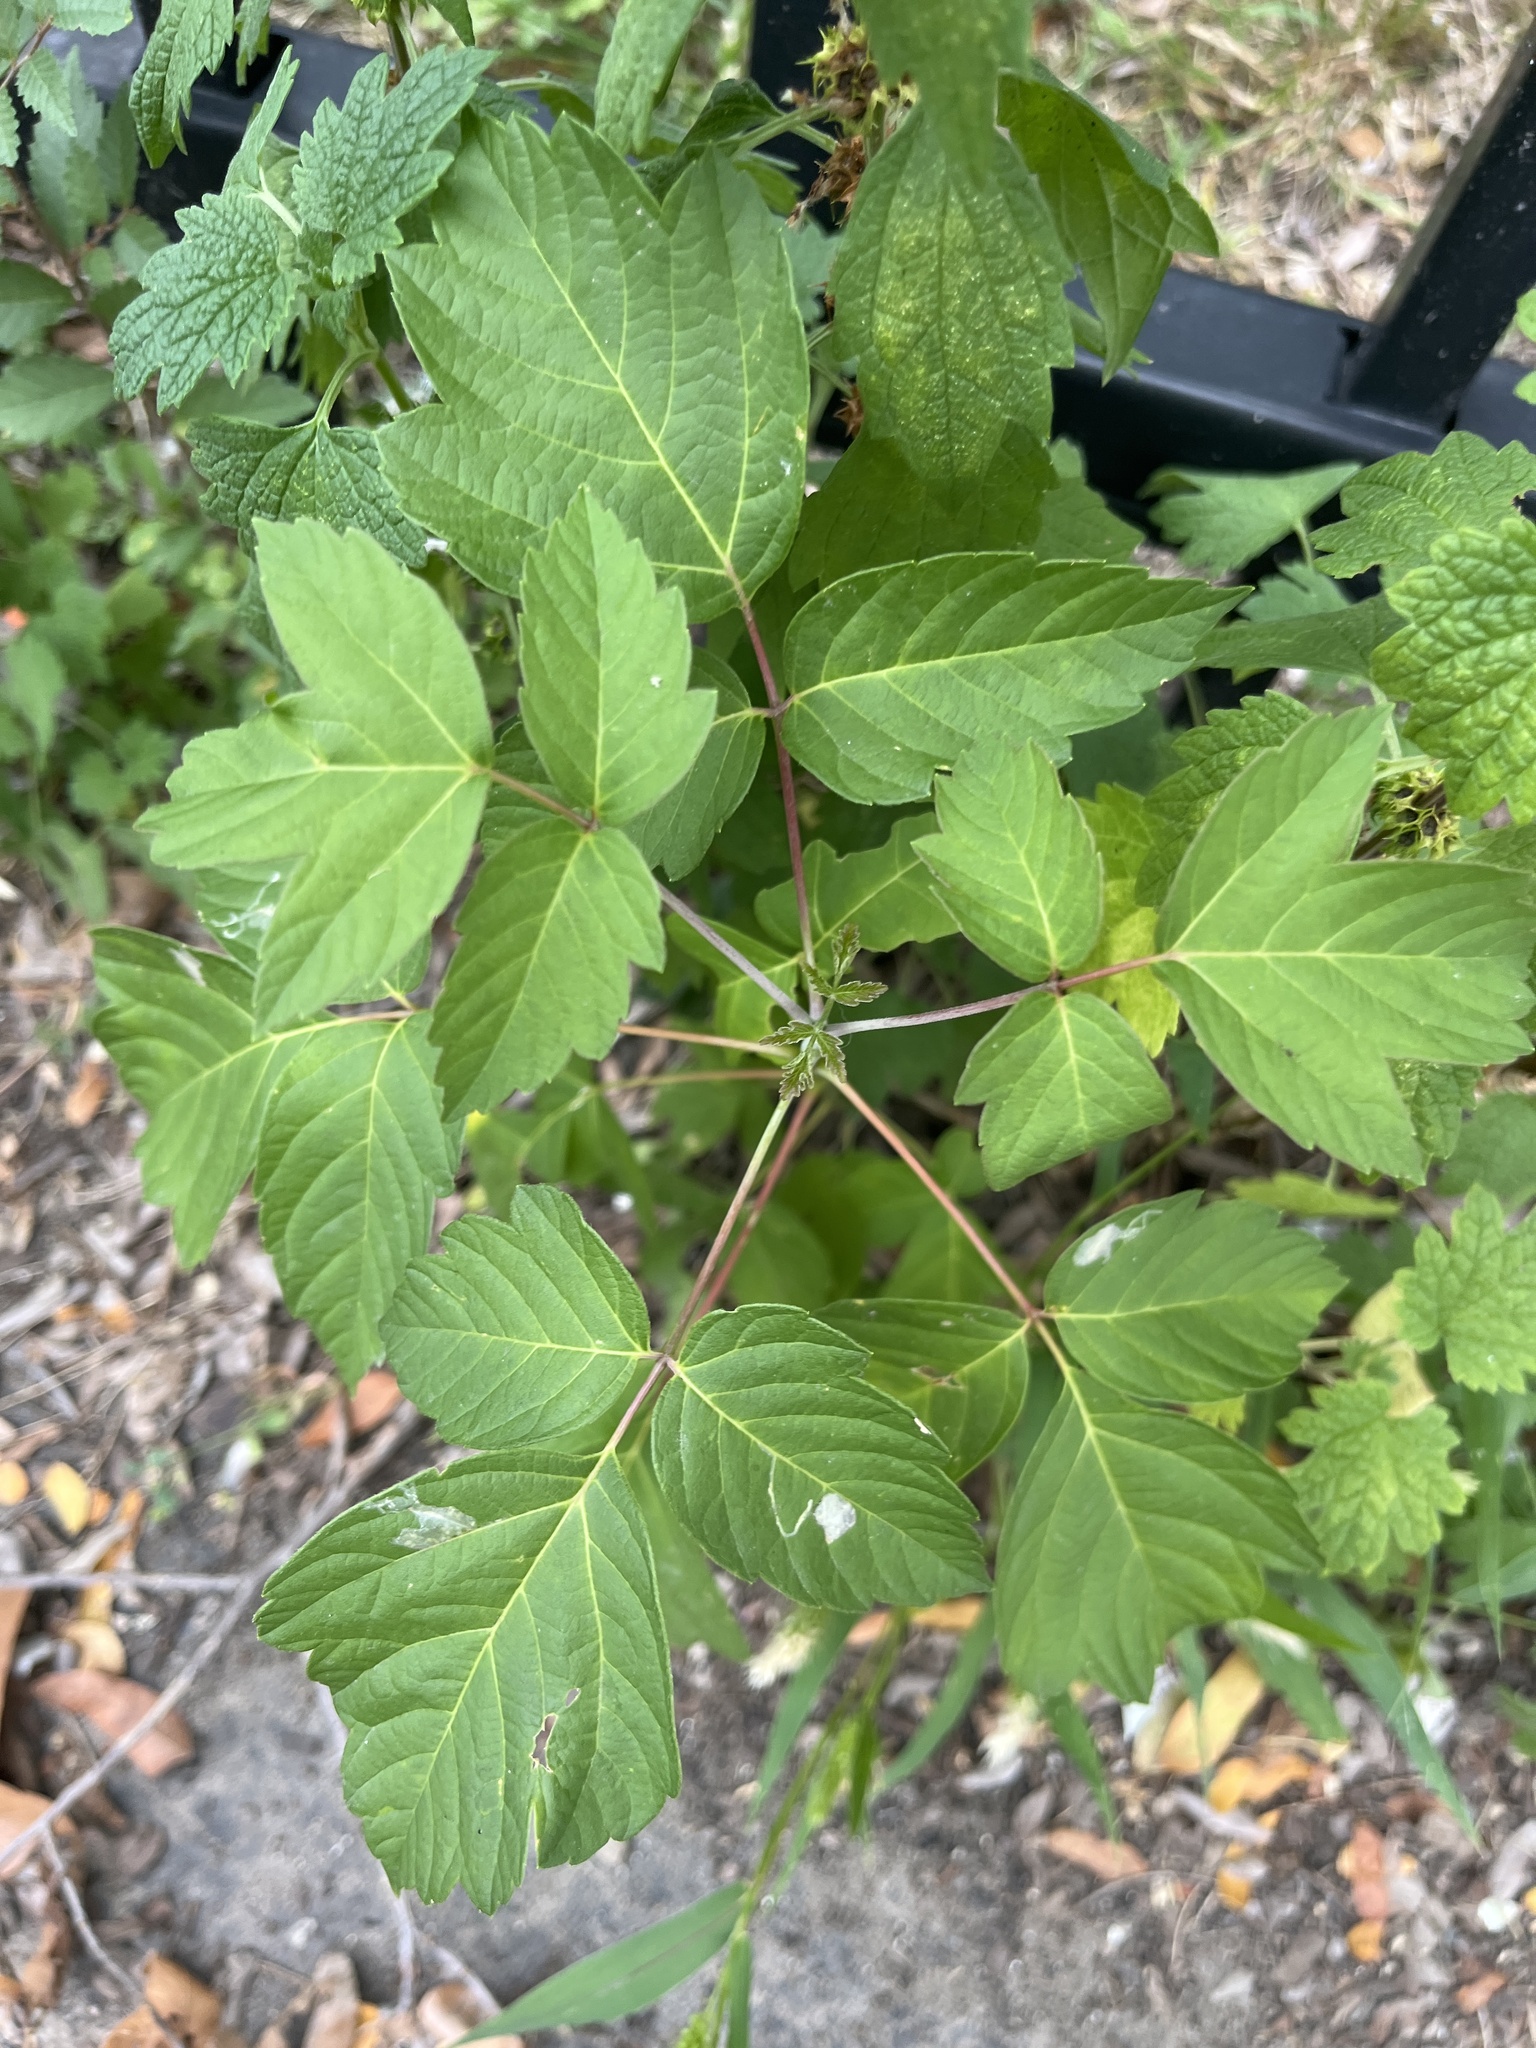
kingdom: Plantae
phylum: Tracheophyta
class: Magnoliopsida
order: Sapindales
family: Sapindaceae
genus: Acer
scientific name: Acer negundo
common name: Ashleaf maple
